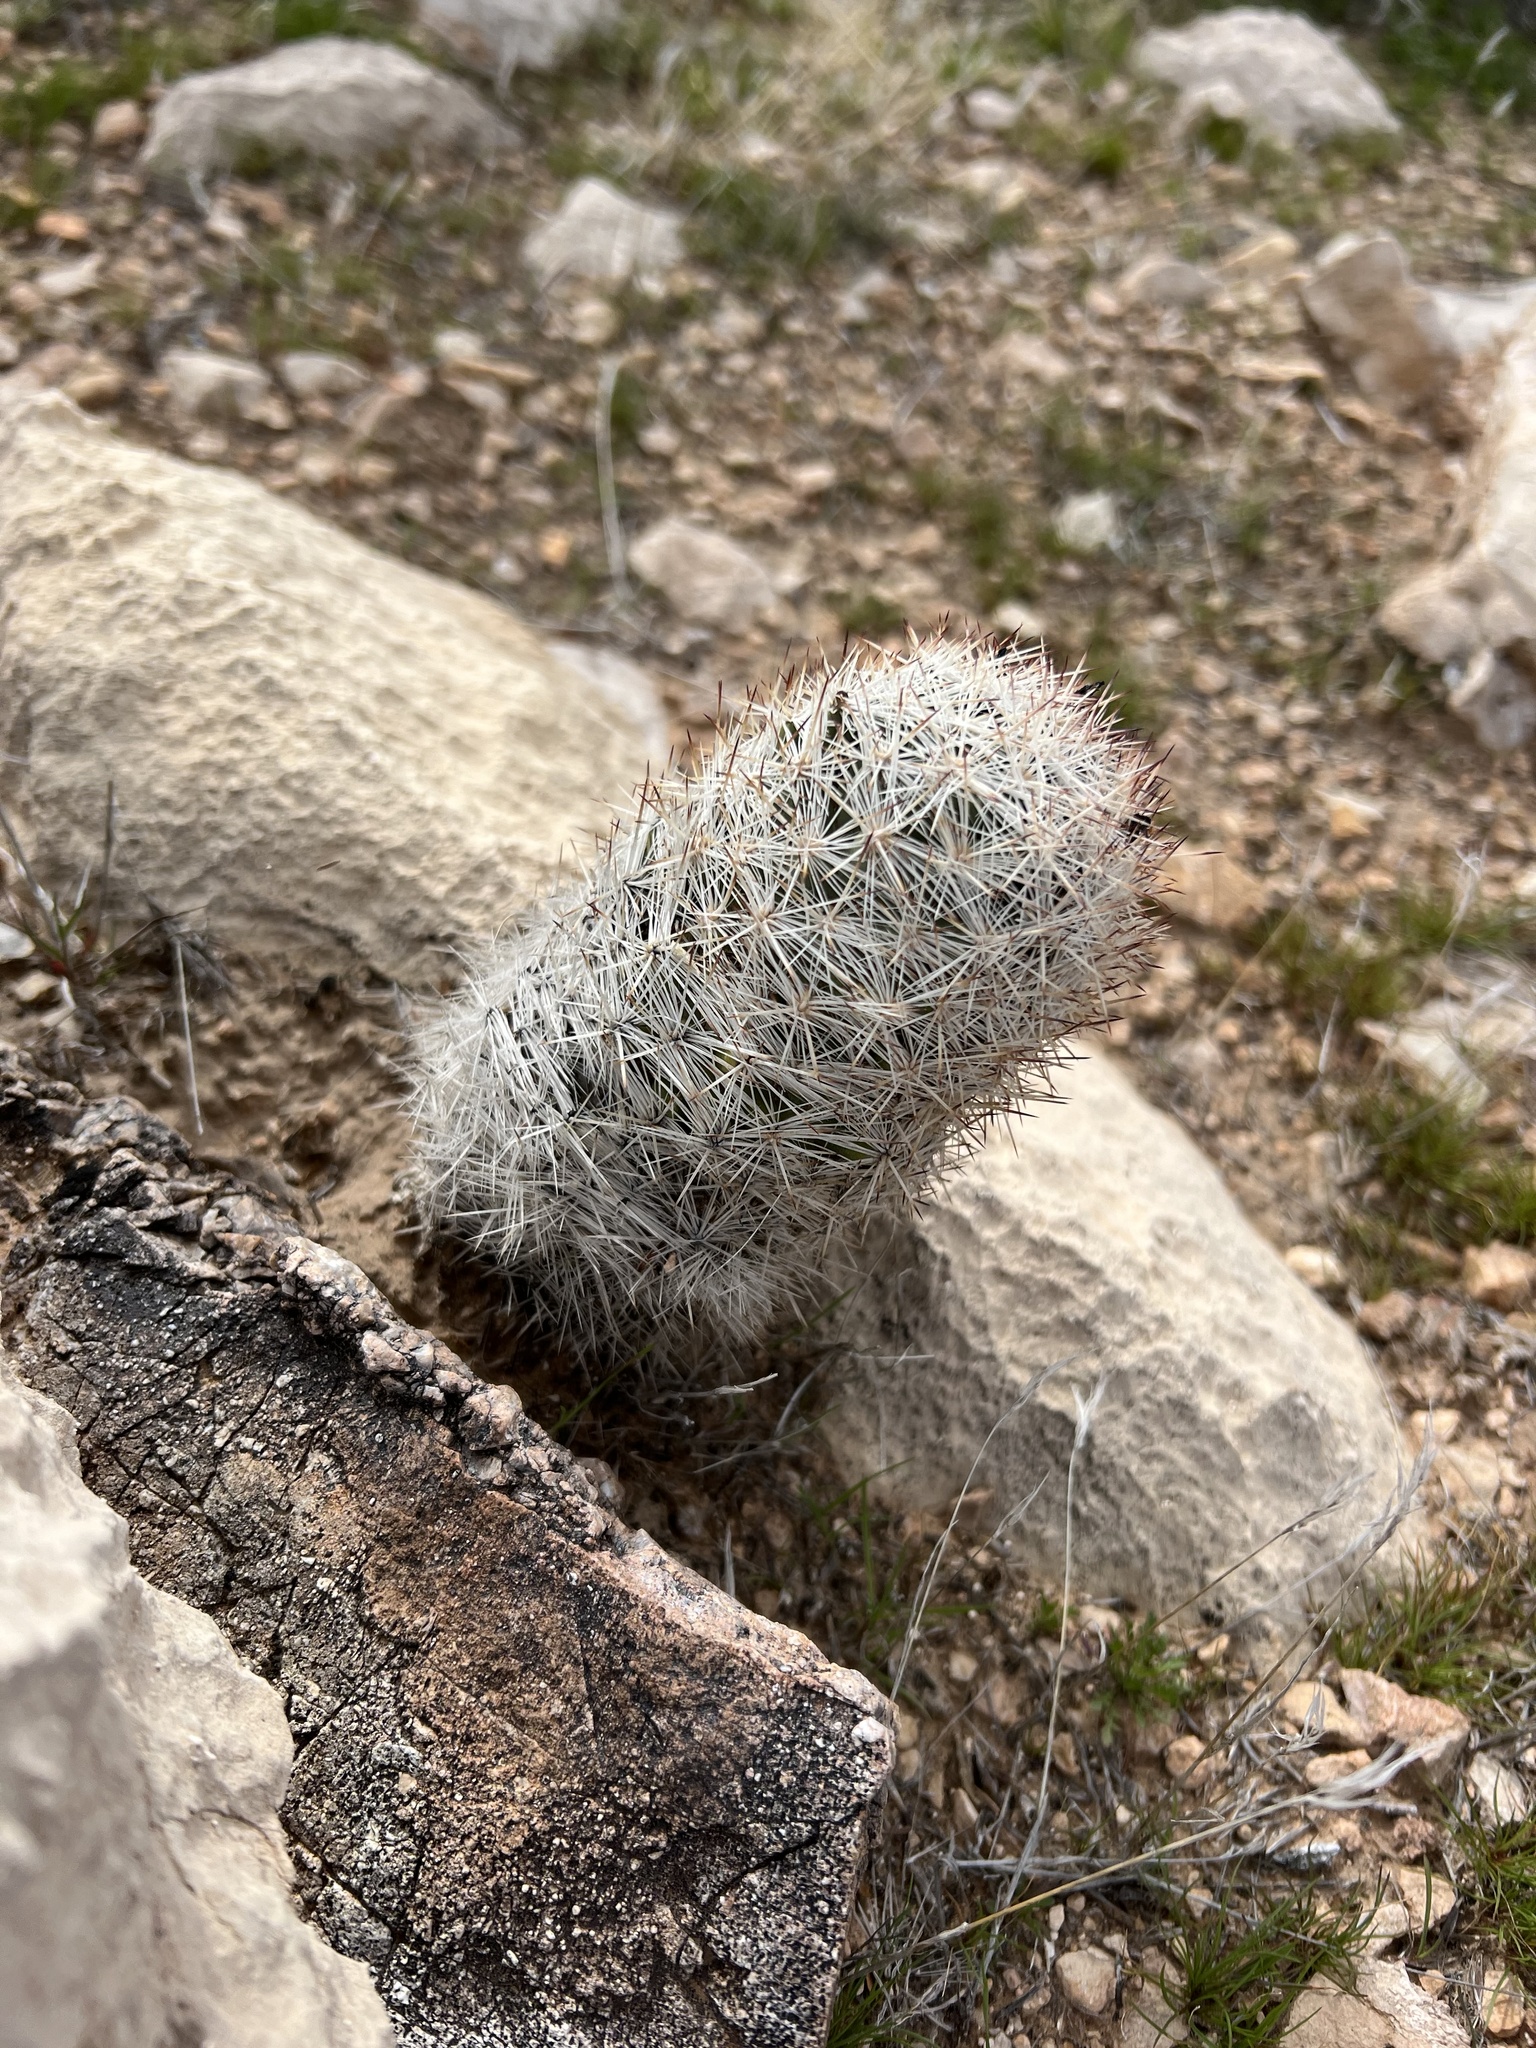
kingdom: Plantae
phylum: Tracheophyta
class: Magnoliopsida
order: Caryophyllales
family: Cactaceae
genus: Pelecyphora
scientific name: Pelecyphora dasyacantha
